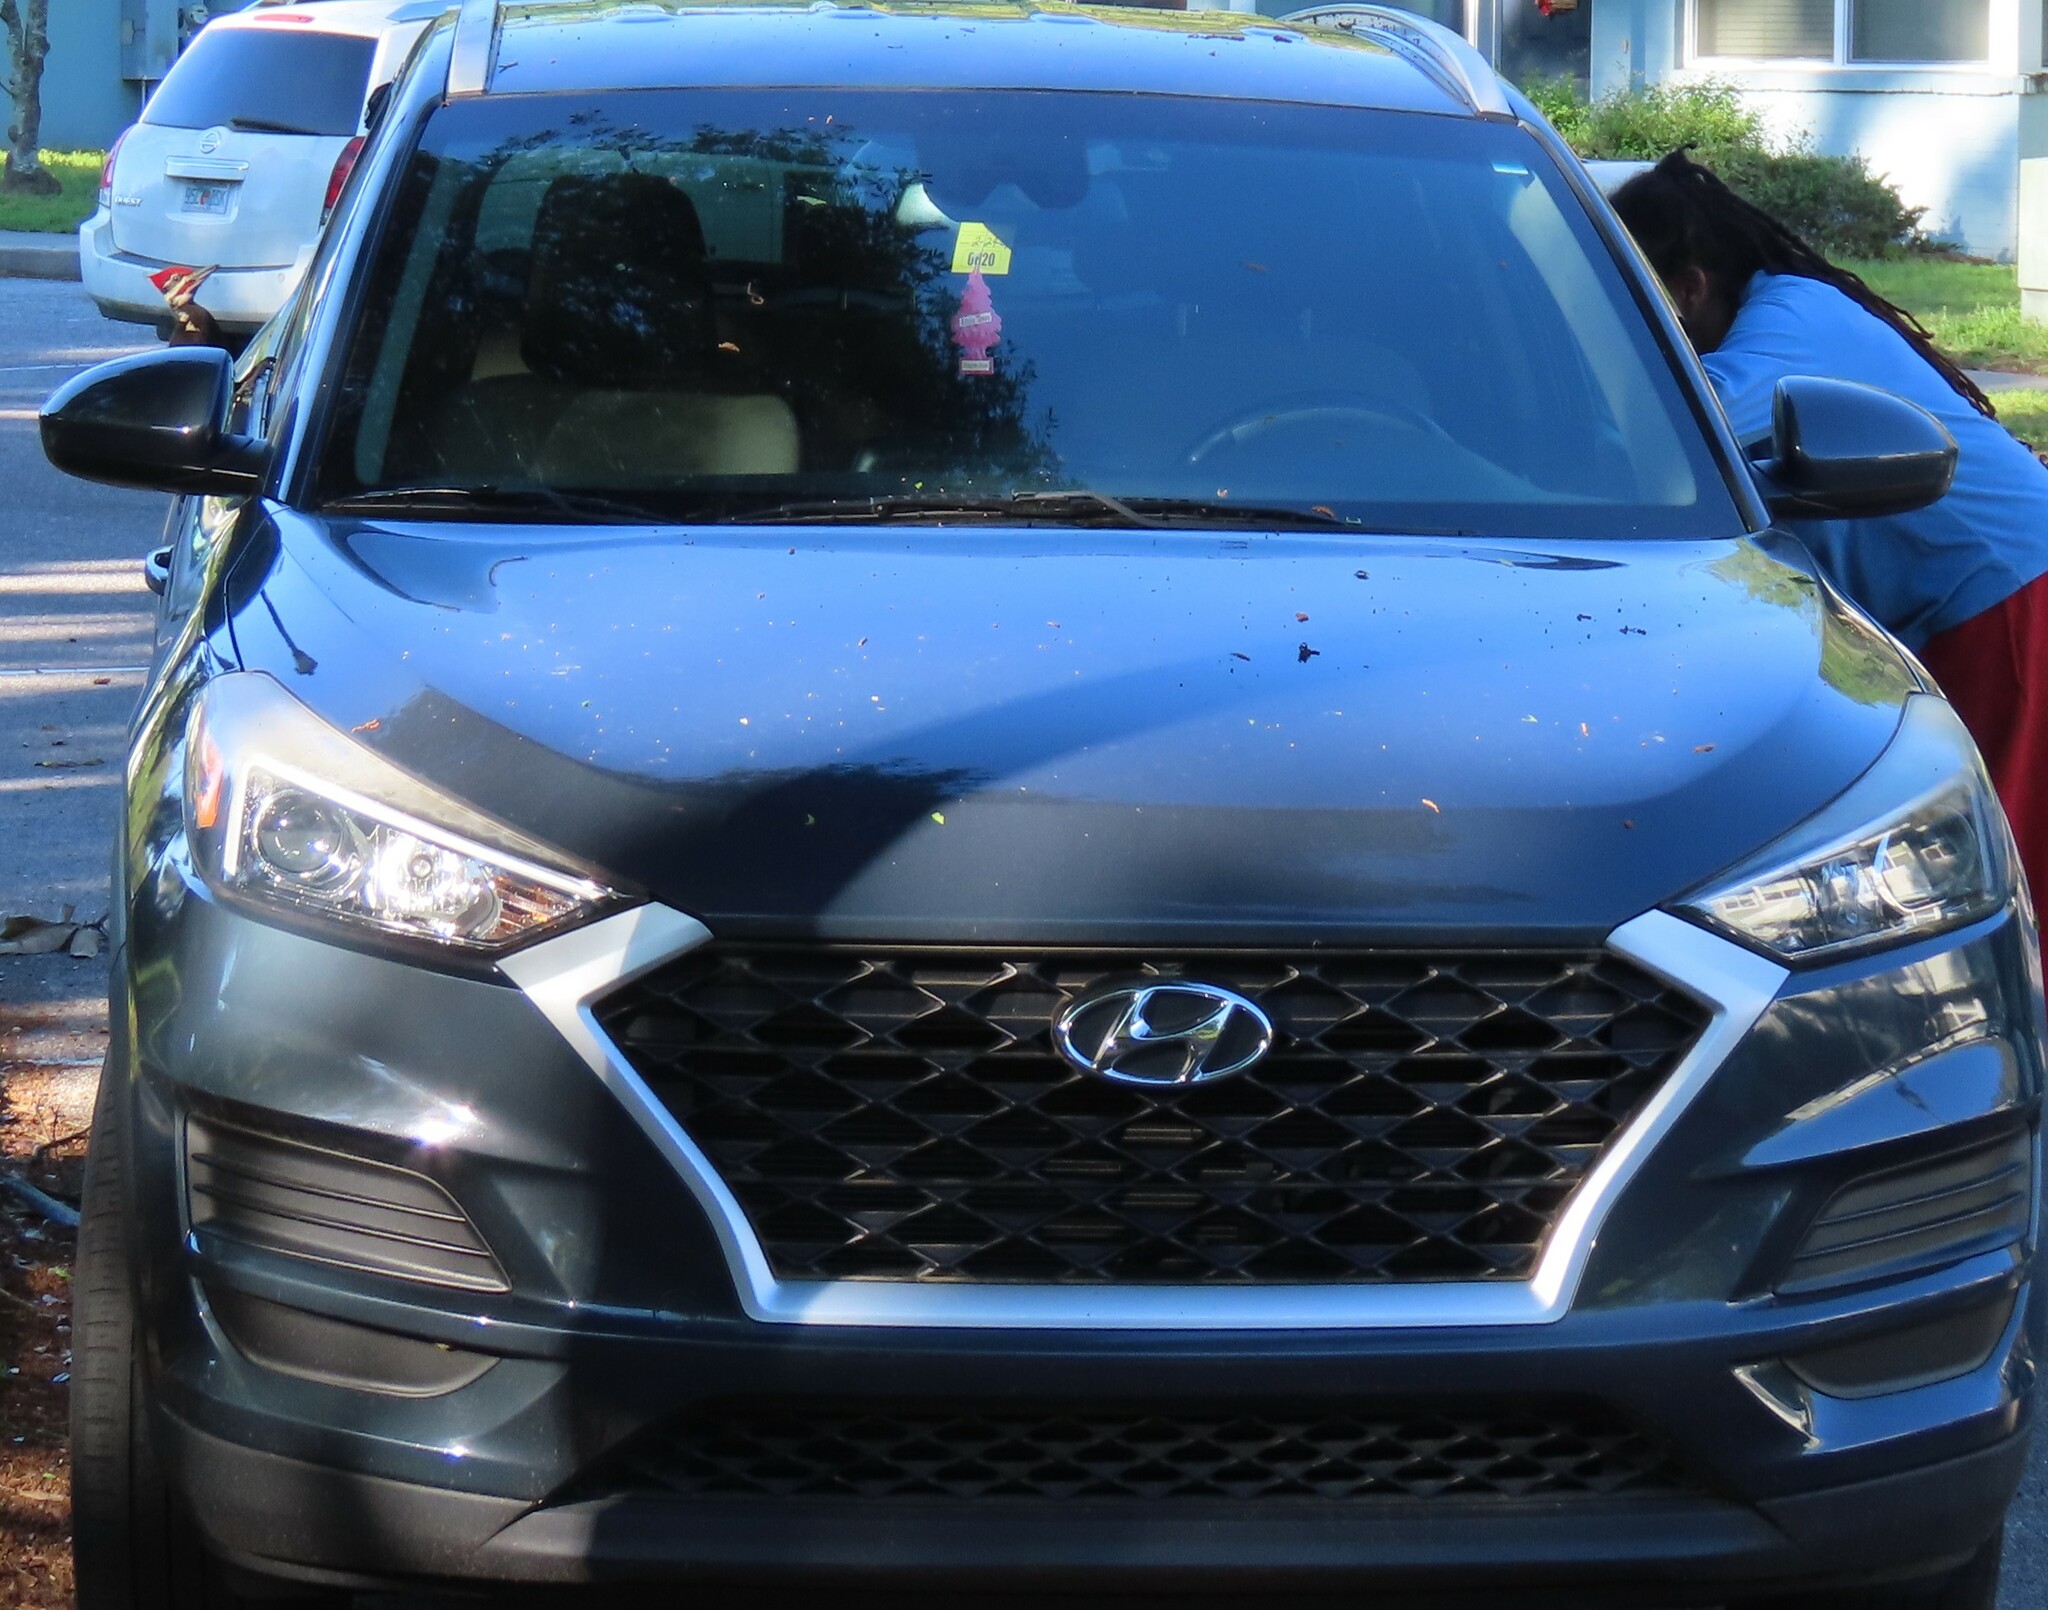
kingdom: Animalia
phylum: Chordata
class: Aves
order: Piciformes
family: Picidae
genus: Dryocopus
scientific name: Dryocopus pileatus
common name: Pileated woodpecker
